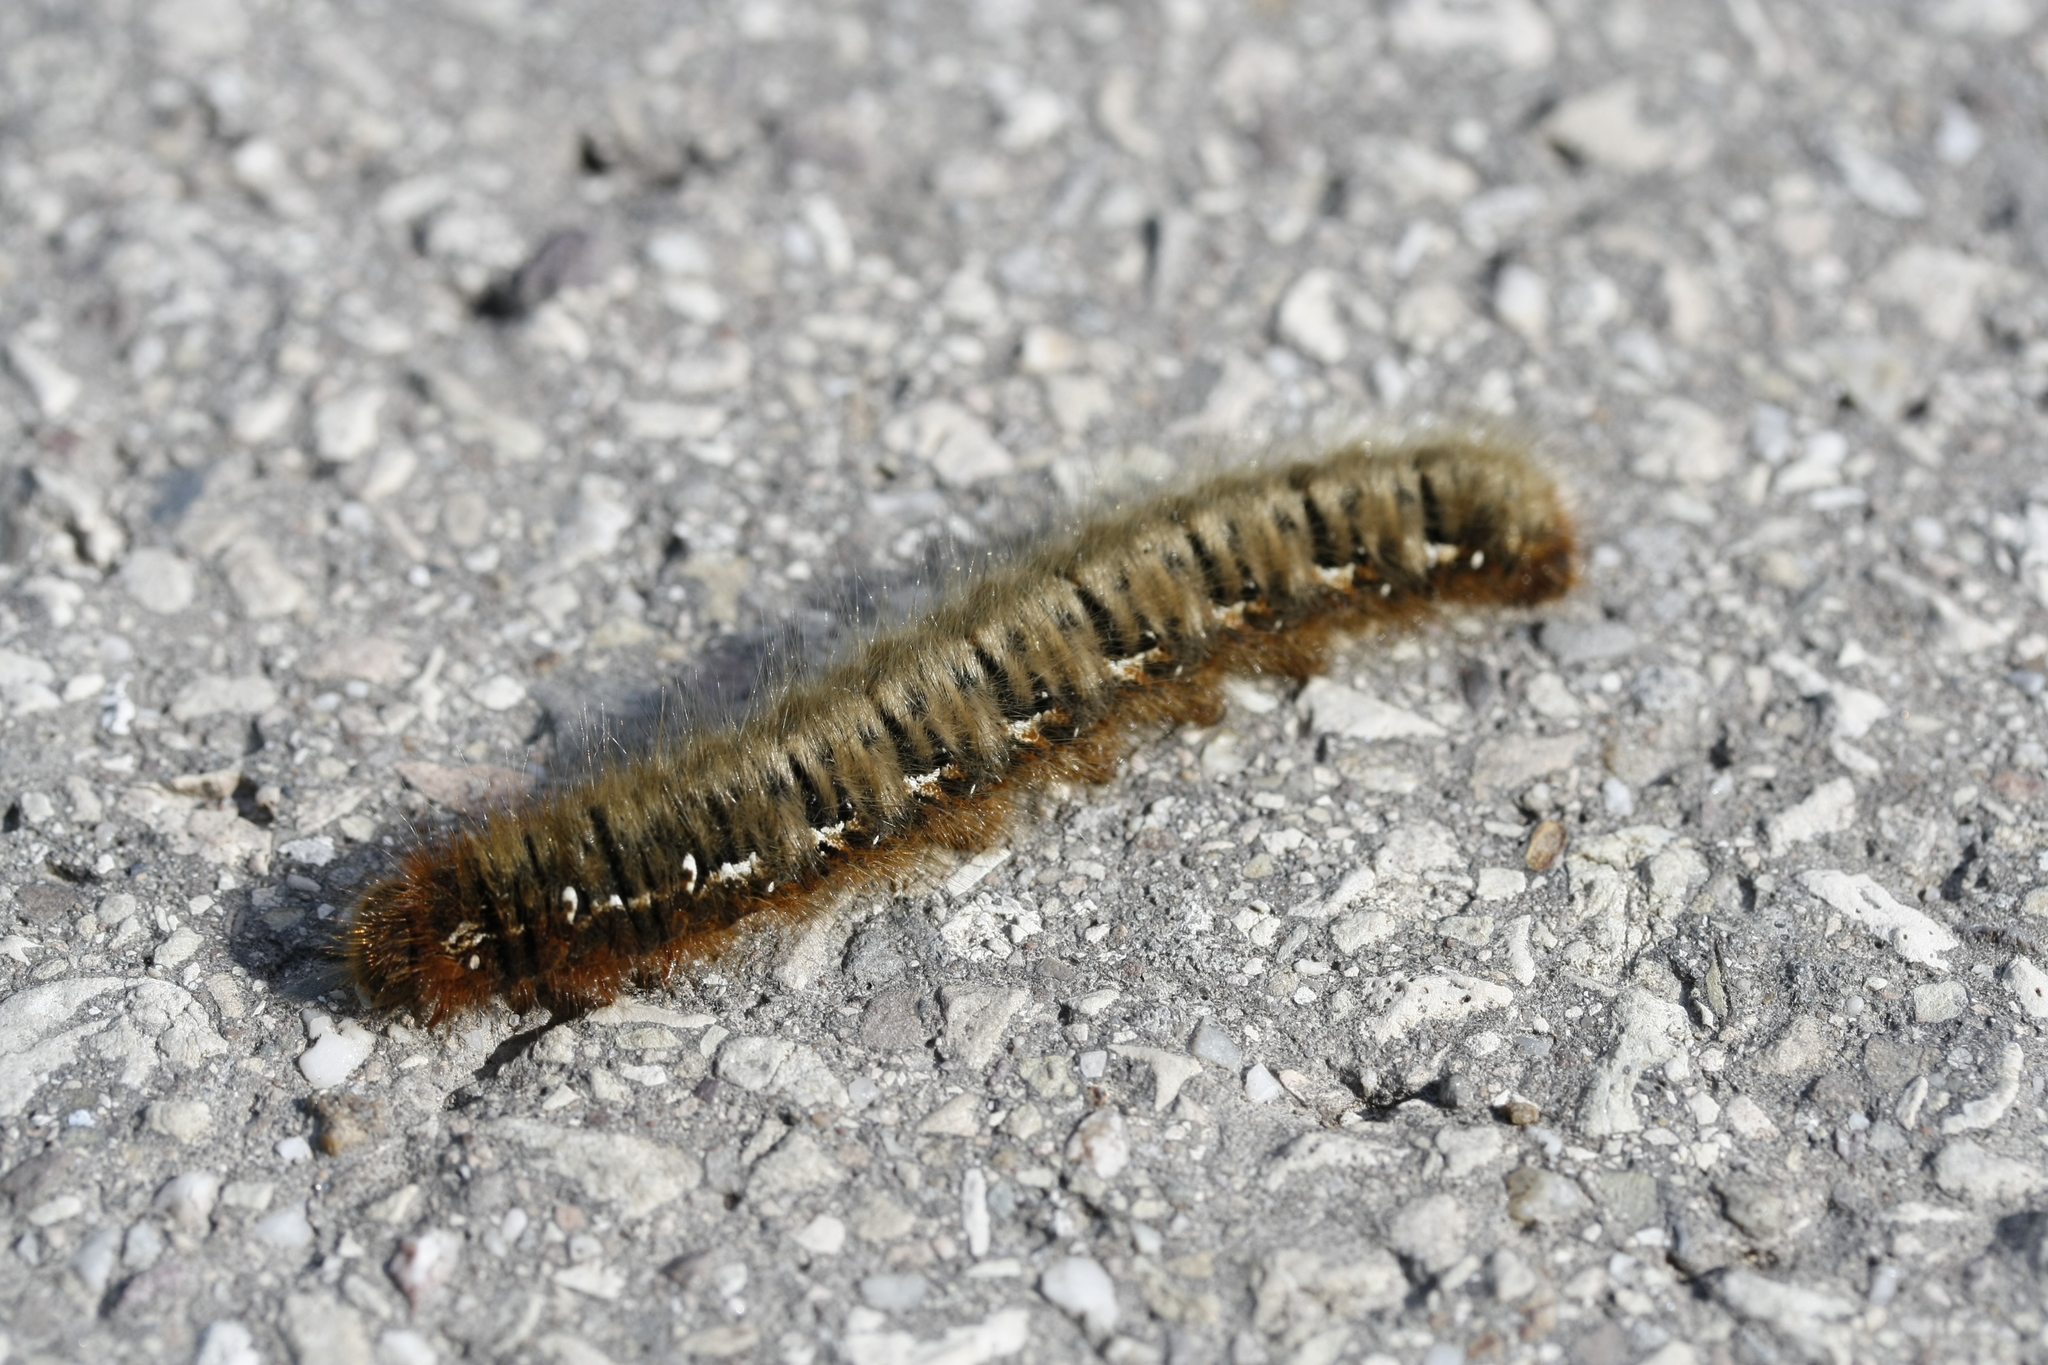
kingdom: Animalia
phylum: Arthropoda
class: Insecta
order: Lepidoptera
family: Lasiocampidae
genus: Lasiocampa
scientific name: Lasiocampa quercus
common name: Oak eggar
